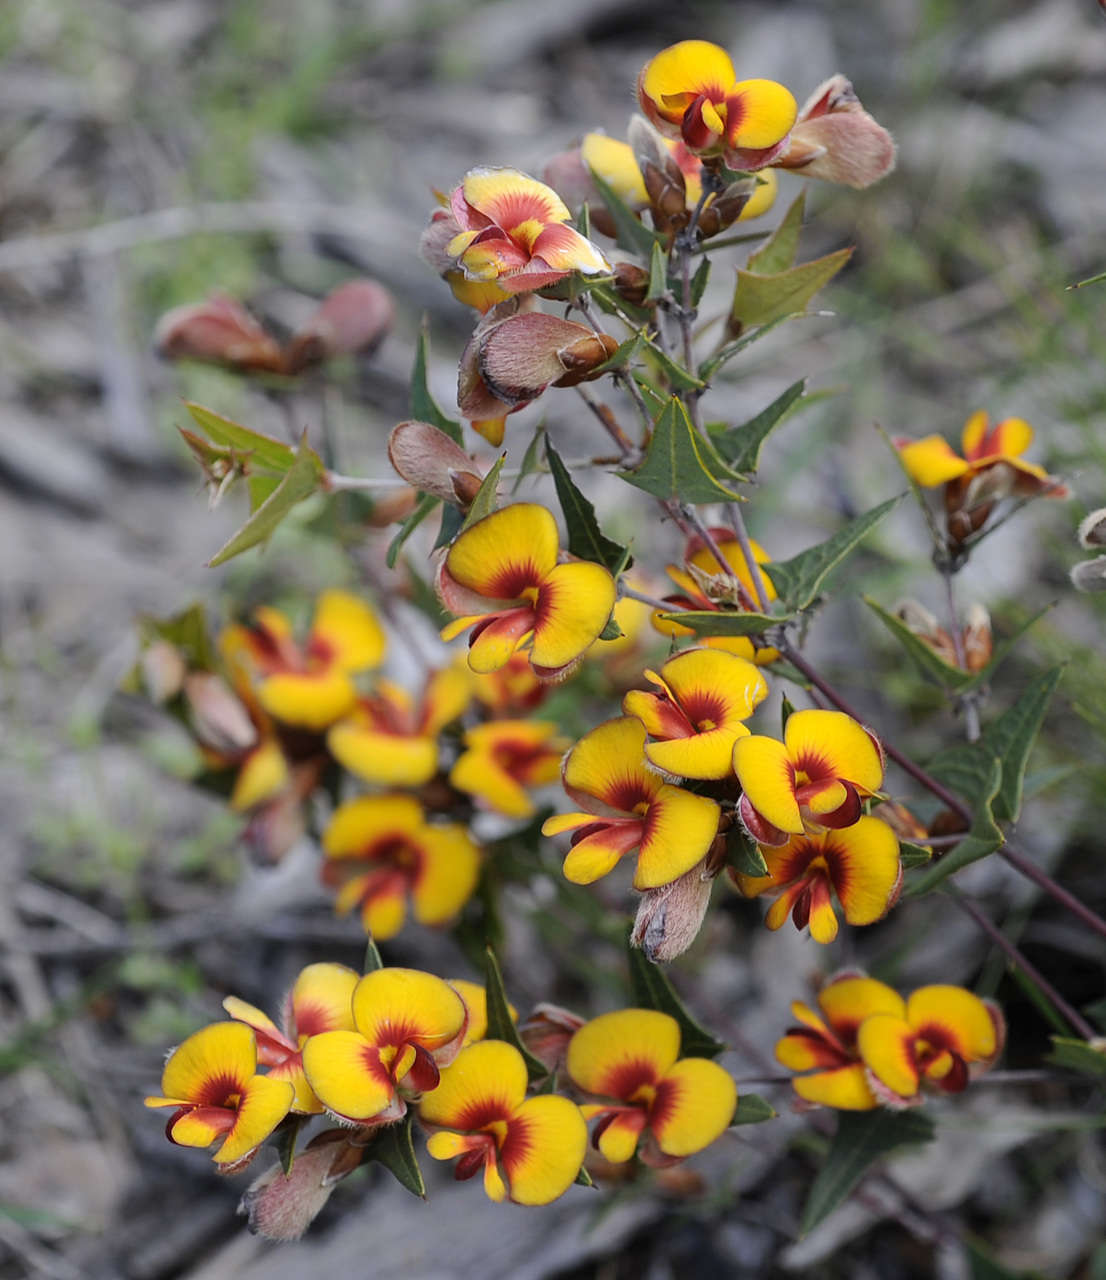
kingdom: Plantae
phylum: Tracheophyta
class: Magnoliopsida
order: Fabales
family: Fabaceae
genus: Platylobium
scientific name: Platylobium obtusangulum
